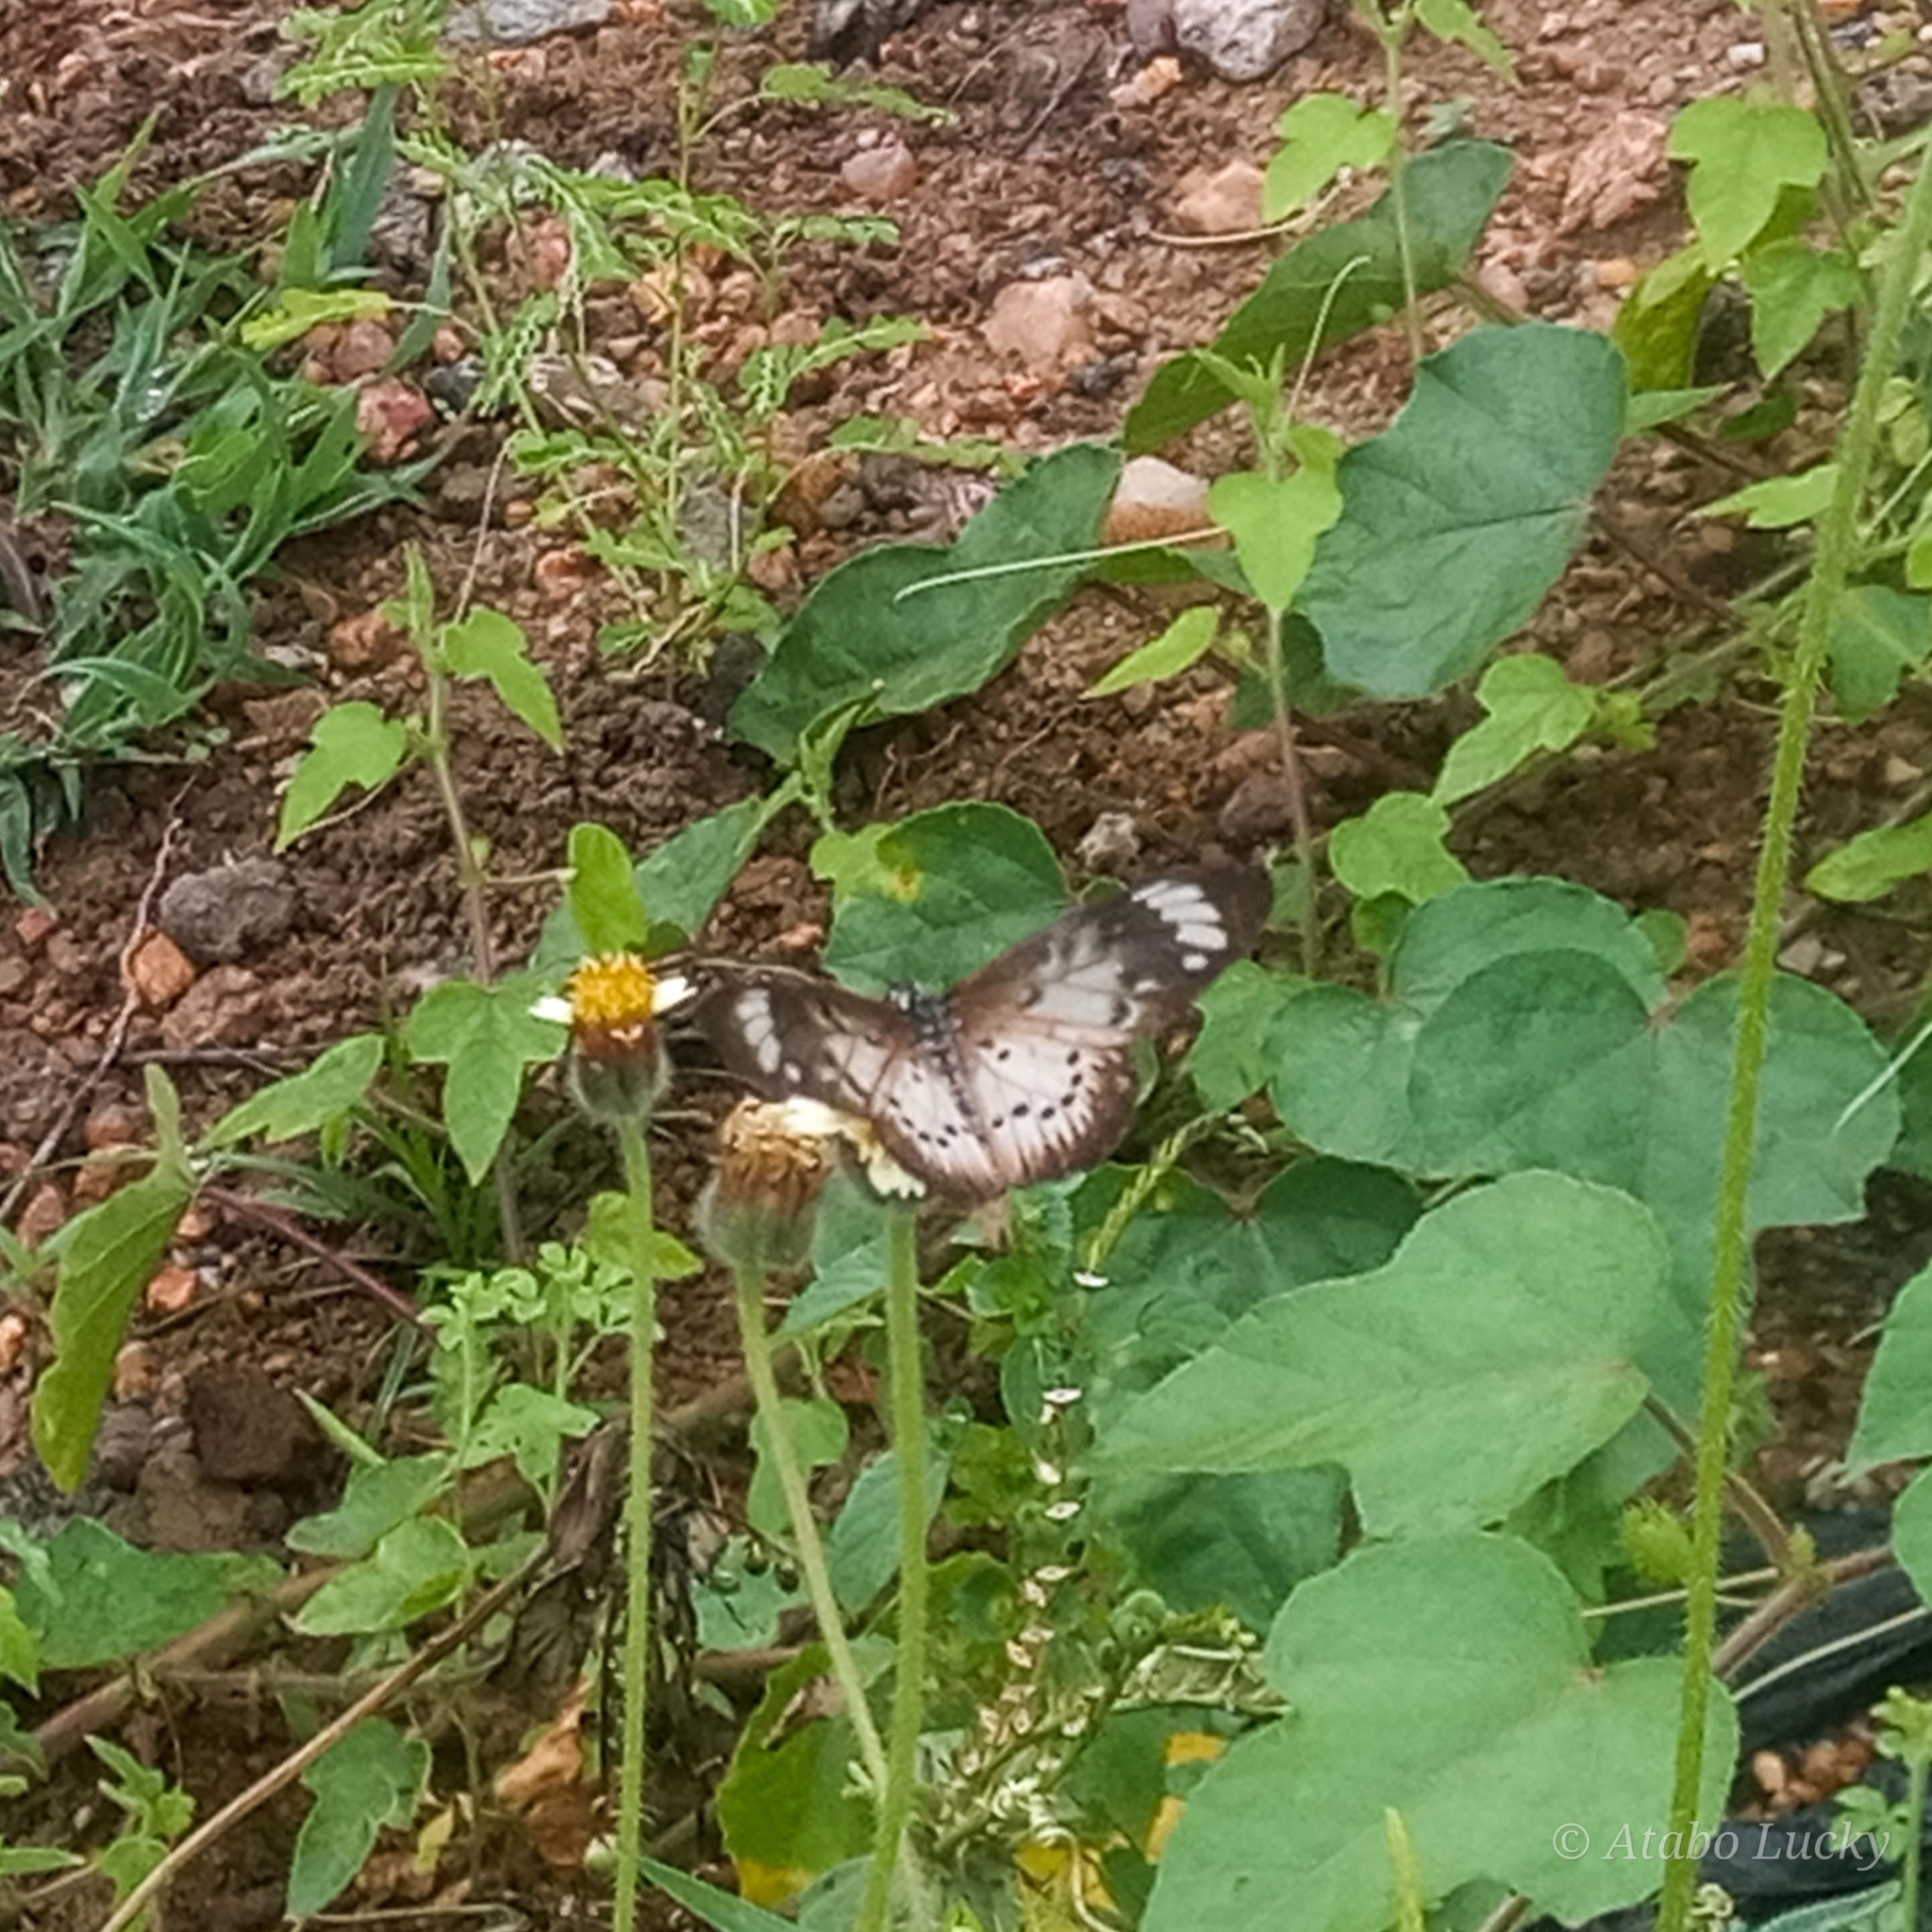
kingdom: Animalia
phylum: Arthropoda
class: Insecta
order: Lepidoptera
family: Nymphalidae
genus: Acraea
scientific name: Acraea Telchinia encedon
